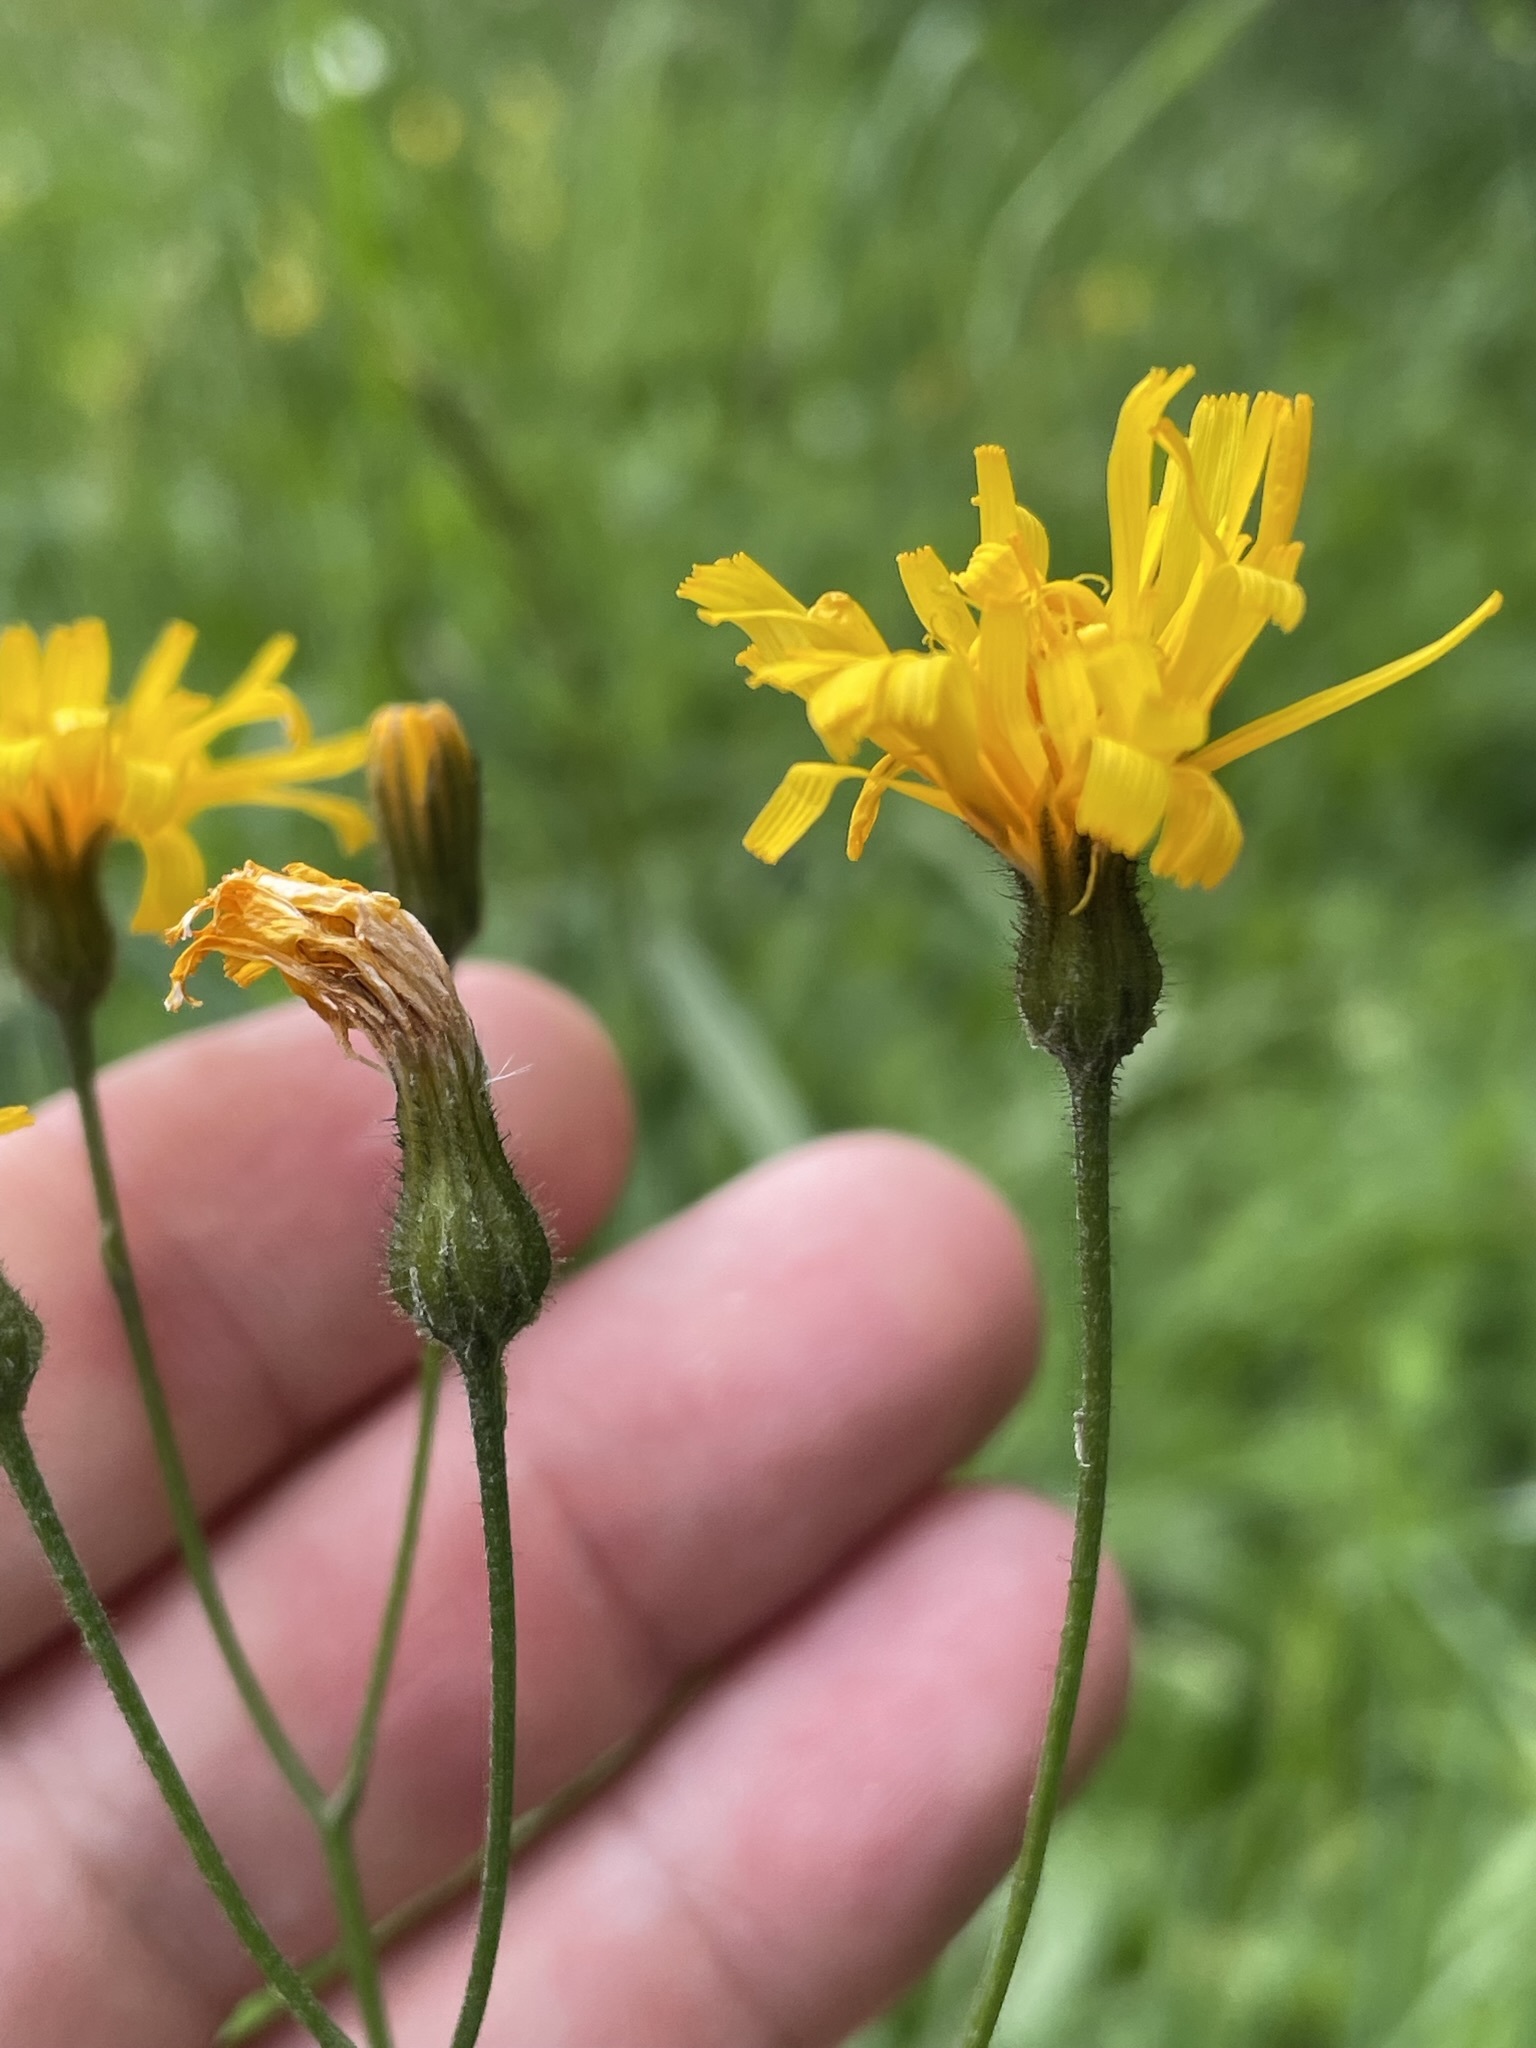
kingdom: Plantae
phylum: Tracheophyta
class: Magnoliopsida
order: Asterales
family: Asteraceae
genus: Crepis
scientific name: Crepis paludosa
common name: Marsh hawk's-beard
